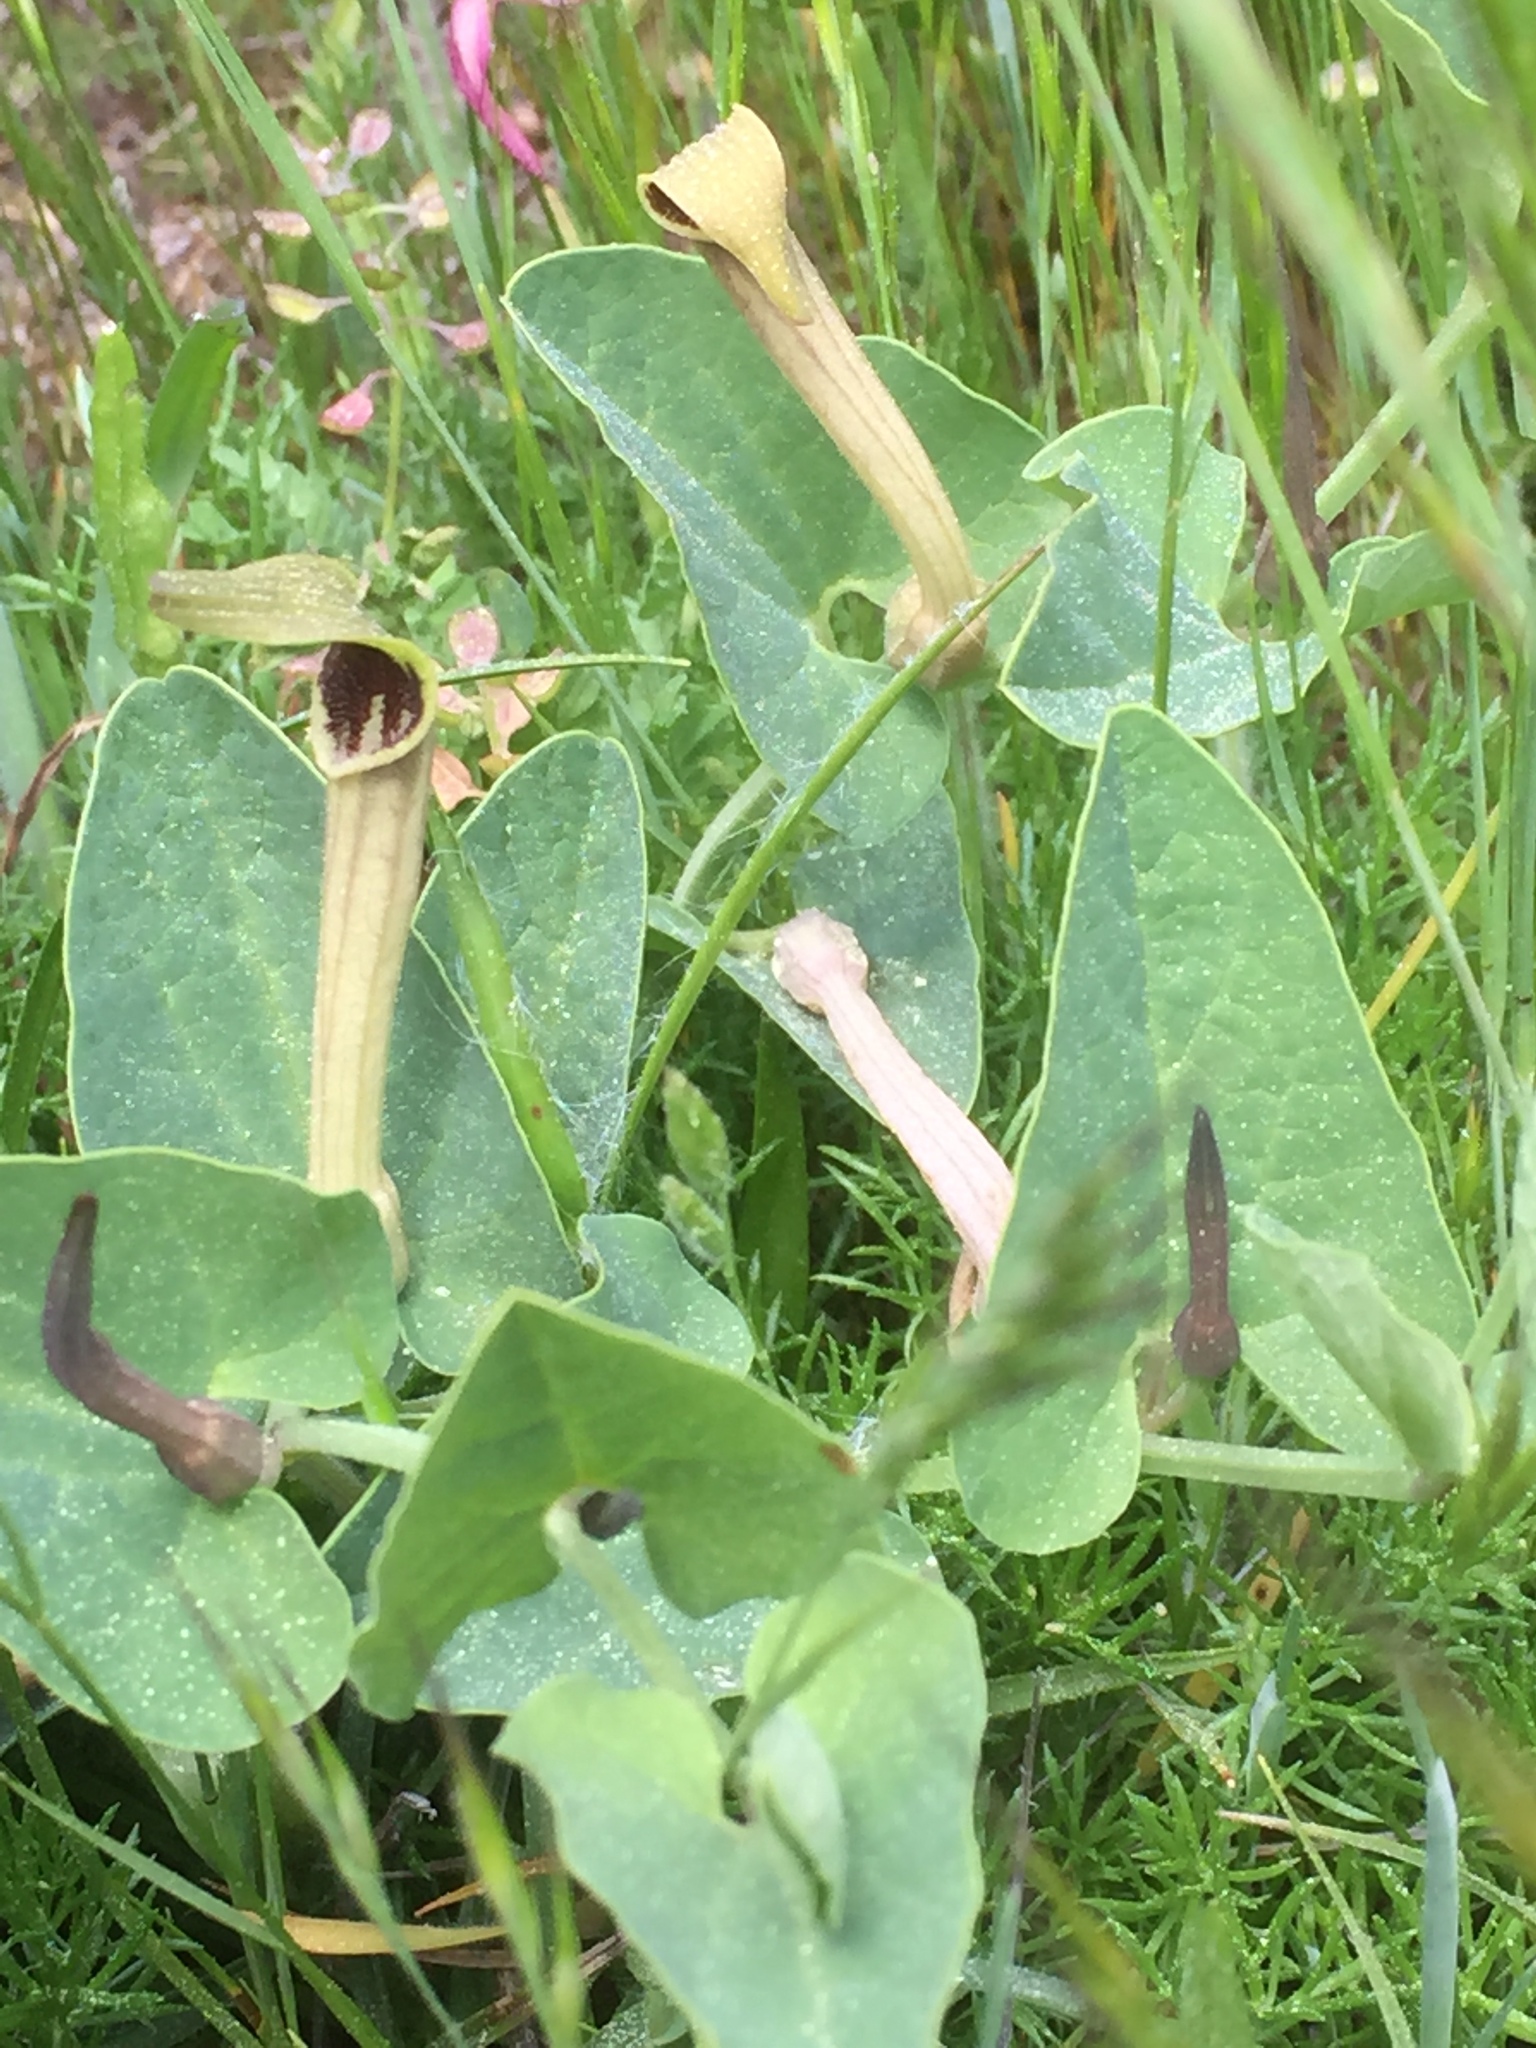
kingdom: Plantae
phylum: Tracheophyta
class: Magnoliopsida
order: Piperales
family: Aristolochiaceae
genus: Aristolochia
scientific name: Aristolochia paucinervis
